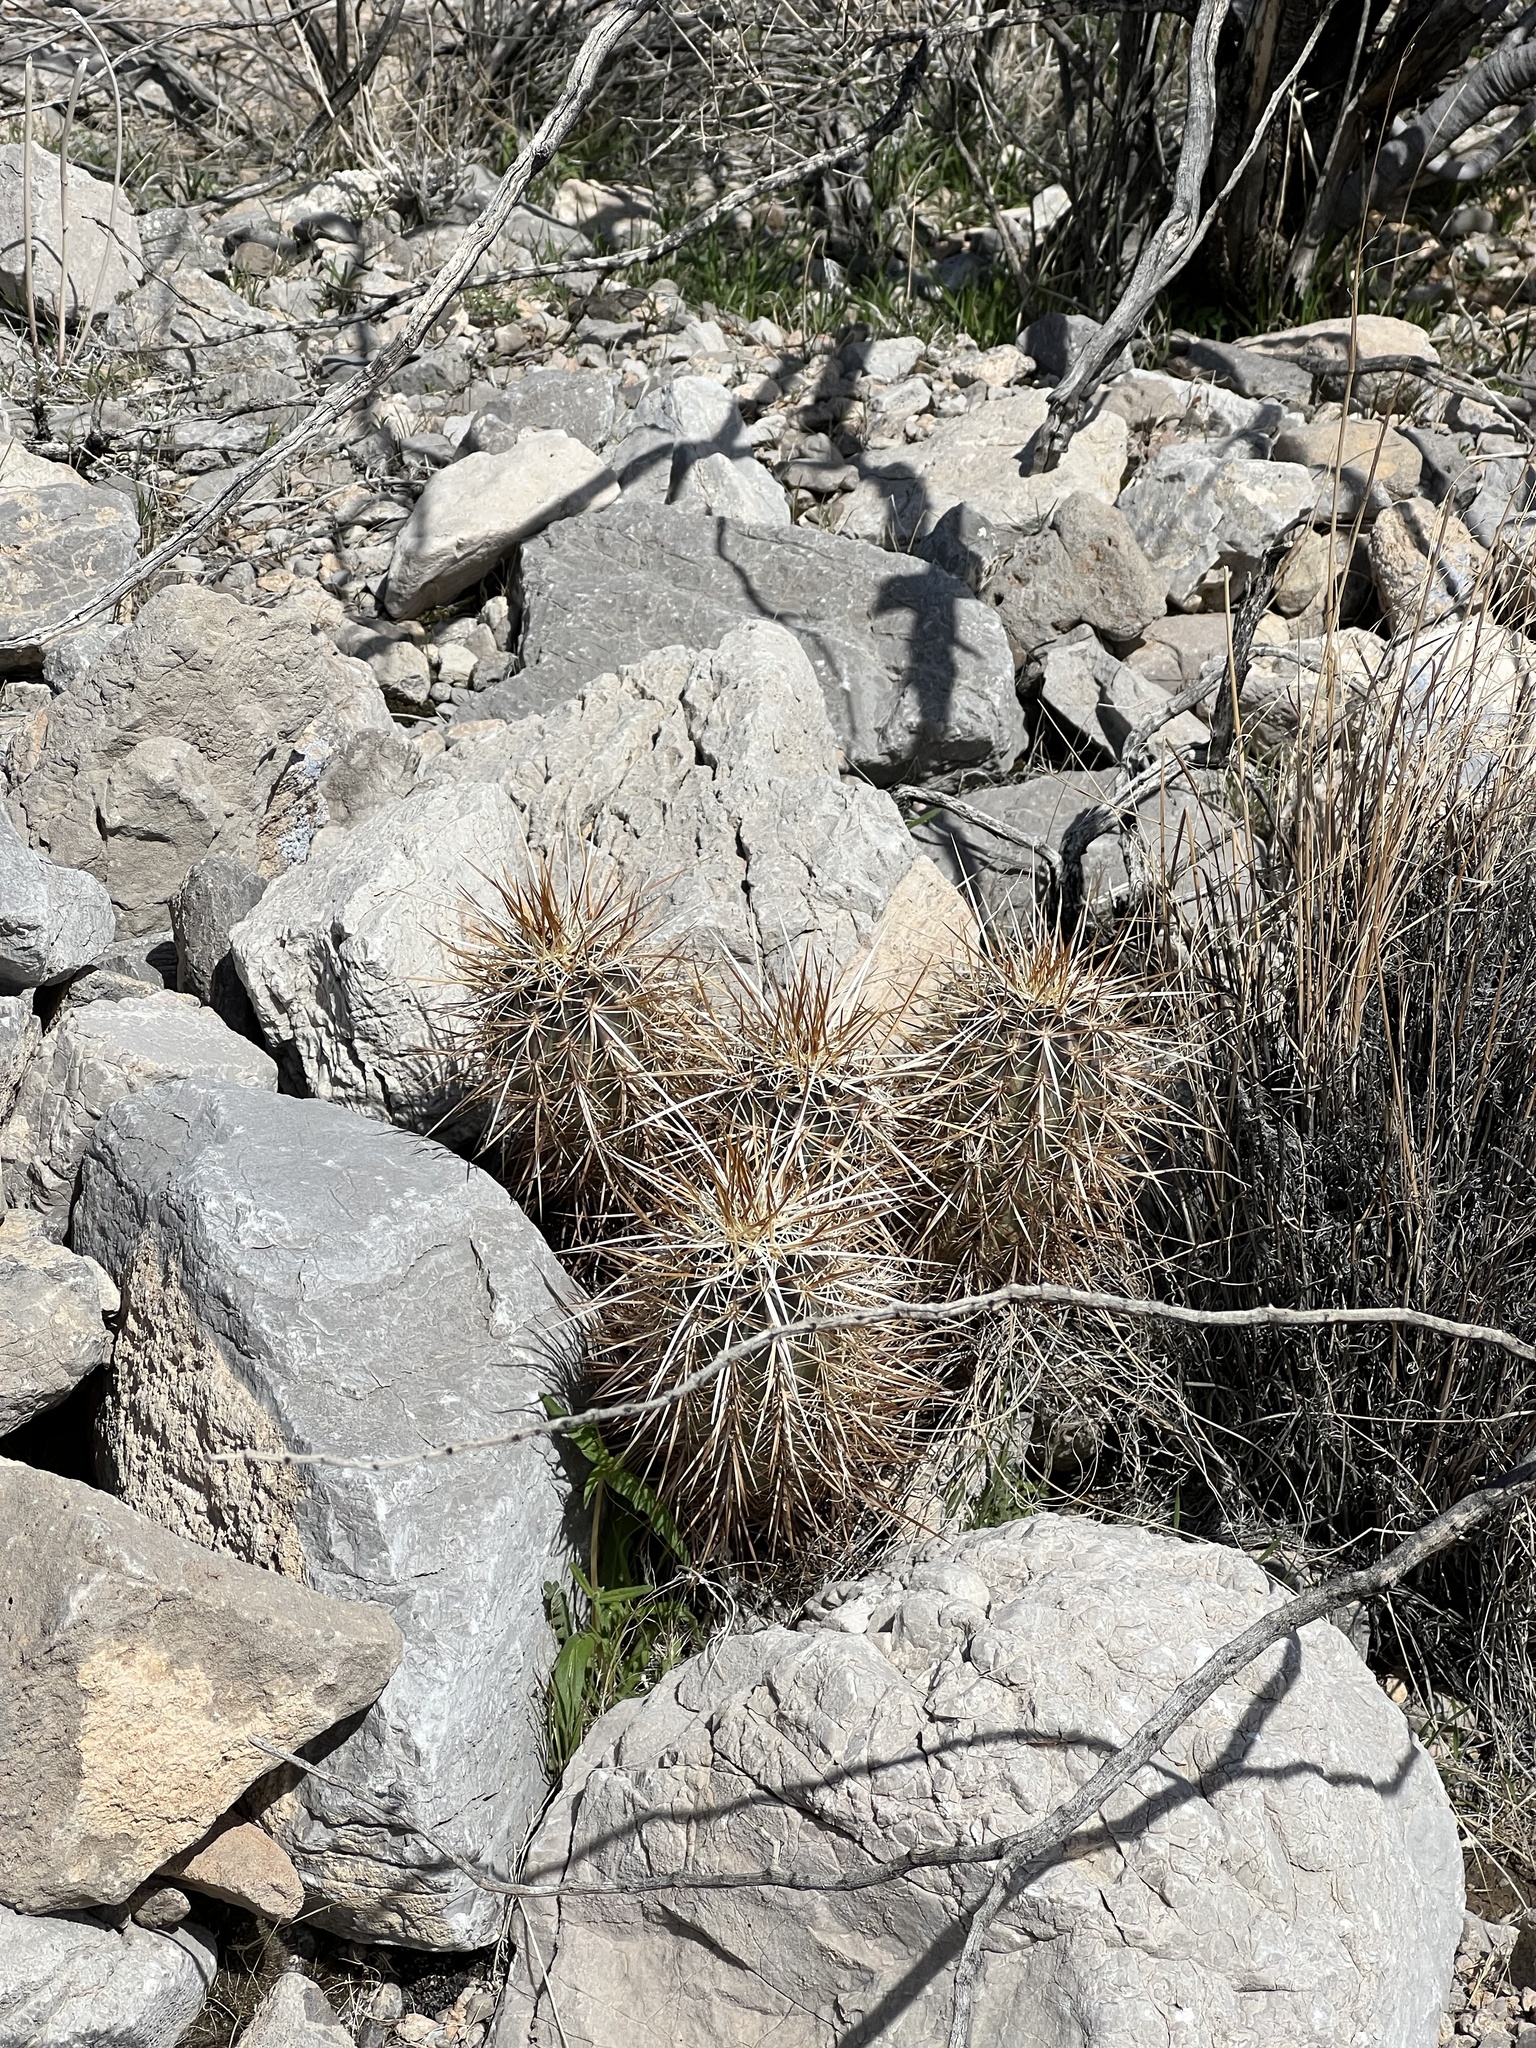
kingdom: Plantae
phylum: Tracheophyta
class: Magnoliopsida
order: Caryophyllales
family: Cactaceae
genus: Echinocereus
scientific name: Echinocereus engelmannii
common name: Engelmann's hedgehog cactus
